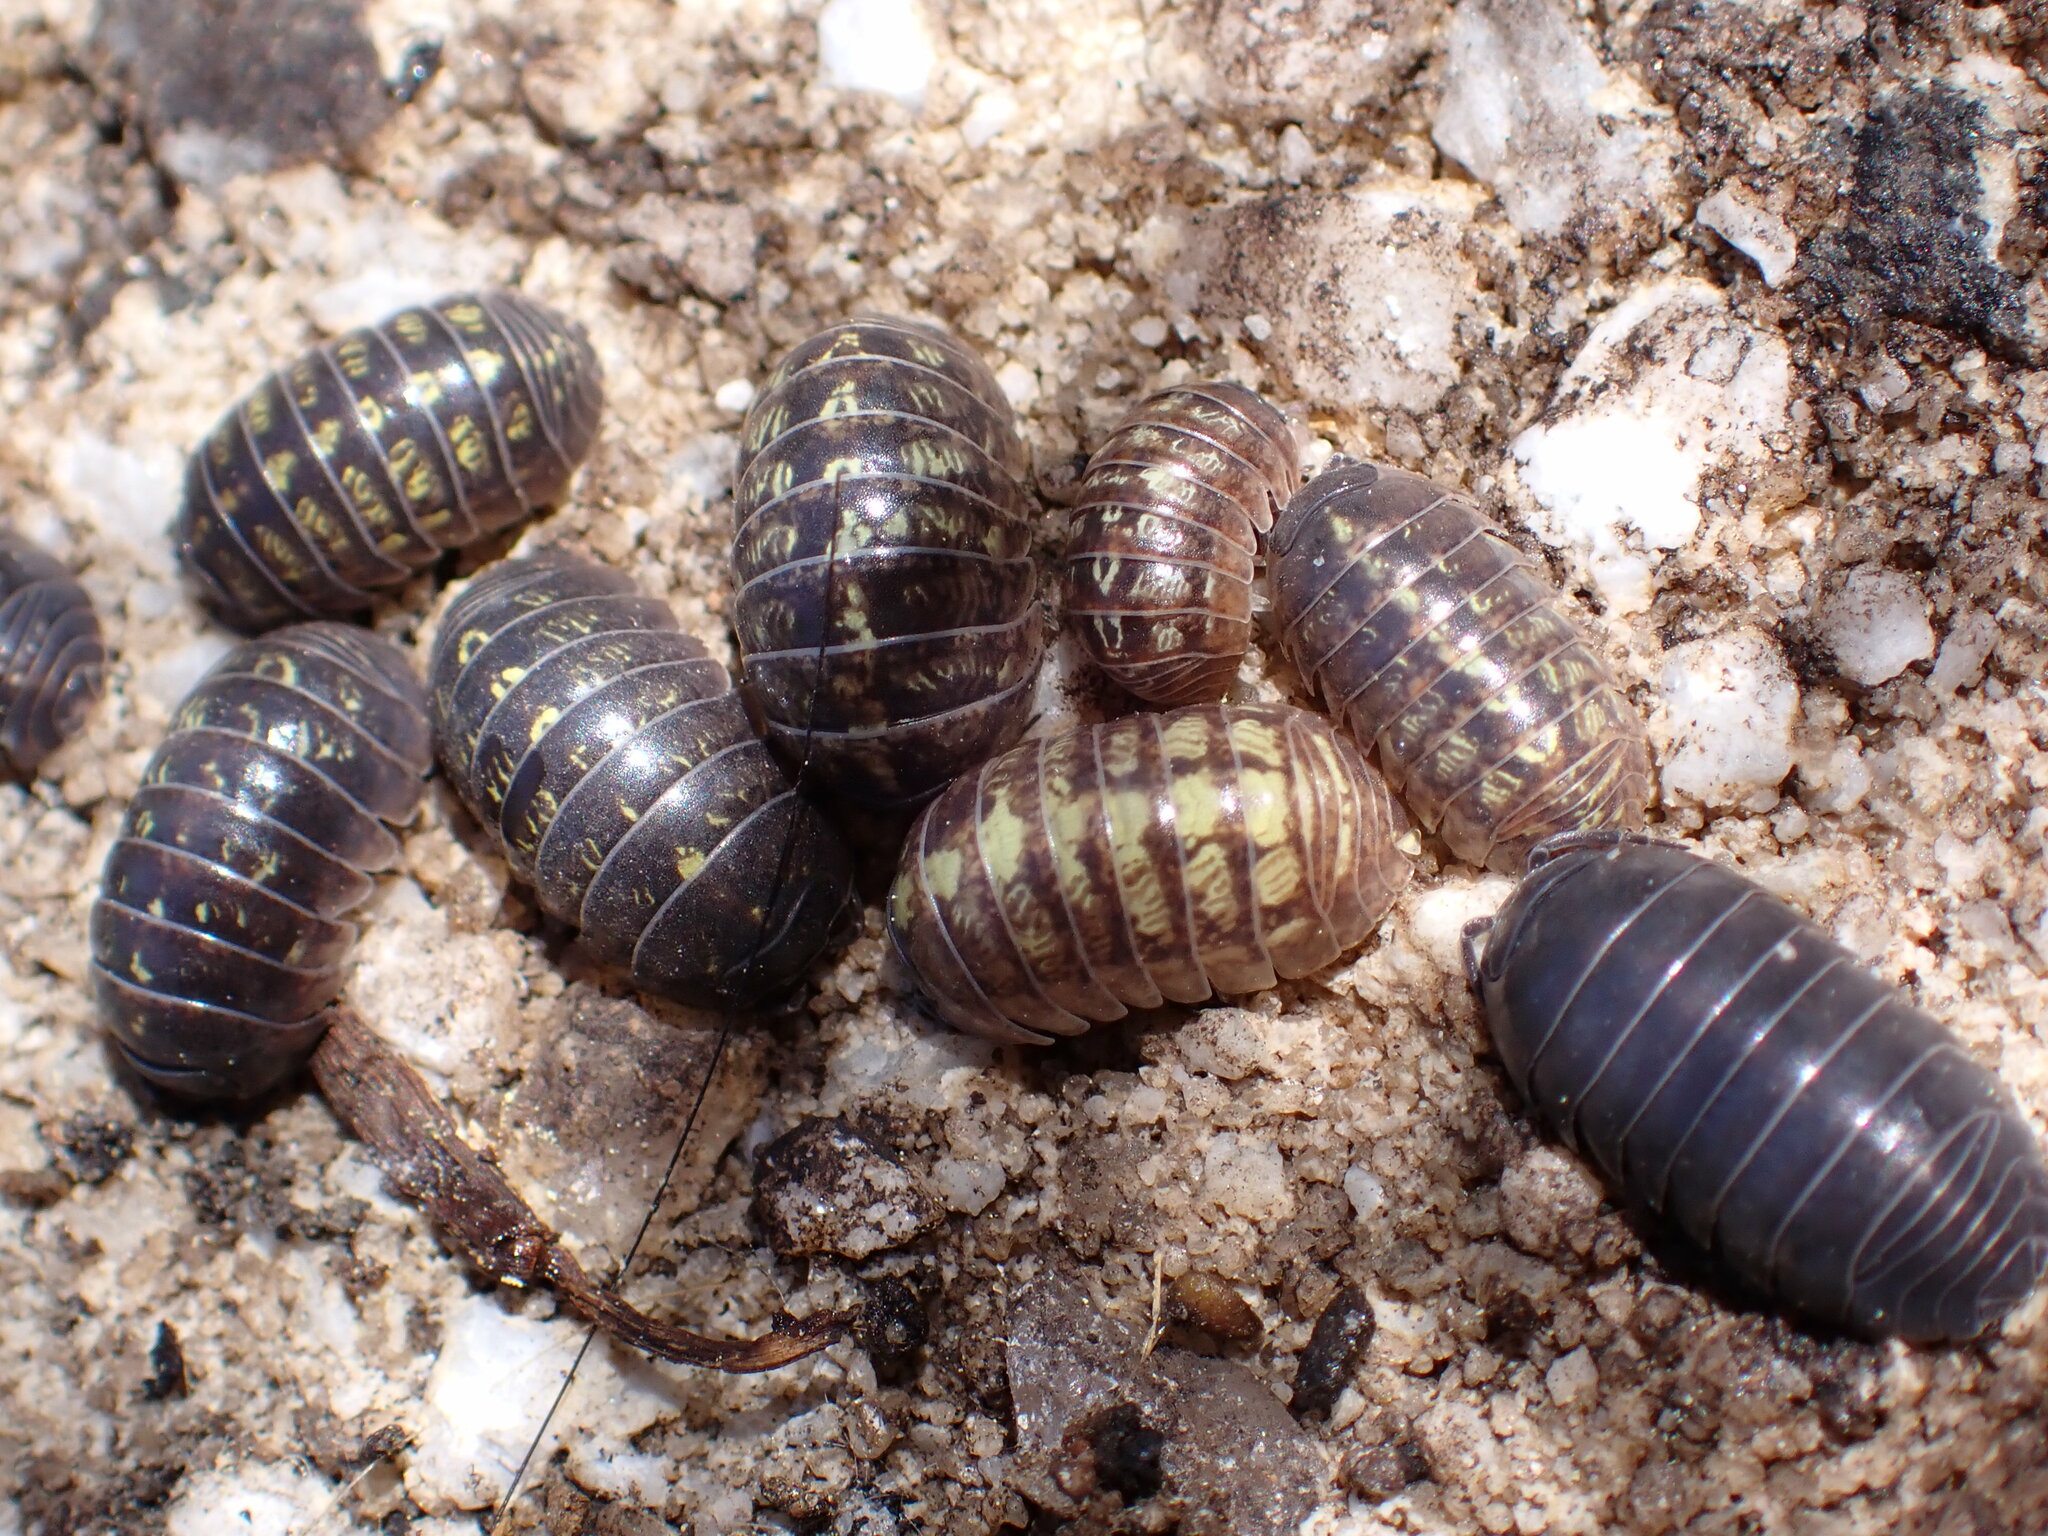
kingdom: Animalia
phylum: Arthropoda
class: Malacostraca
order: Isopoda
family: Armadillidiidae
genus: Armadillidium
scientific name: Armadillidium vulgare
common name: Common pill woodlouse
